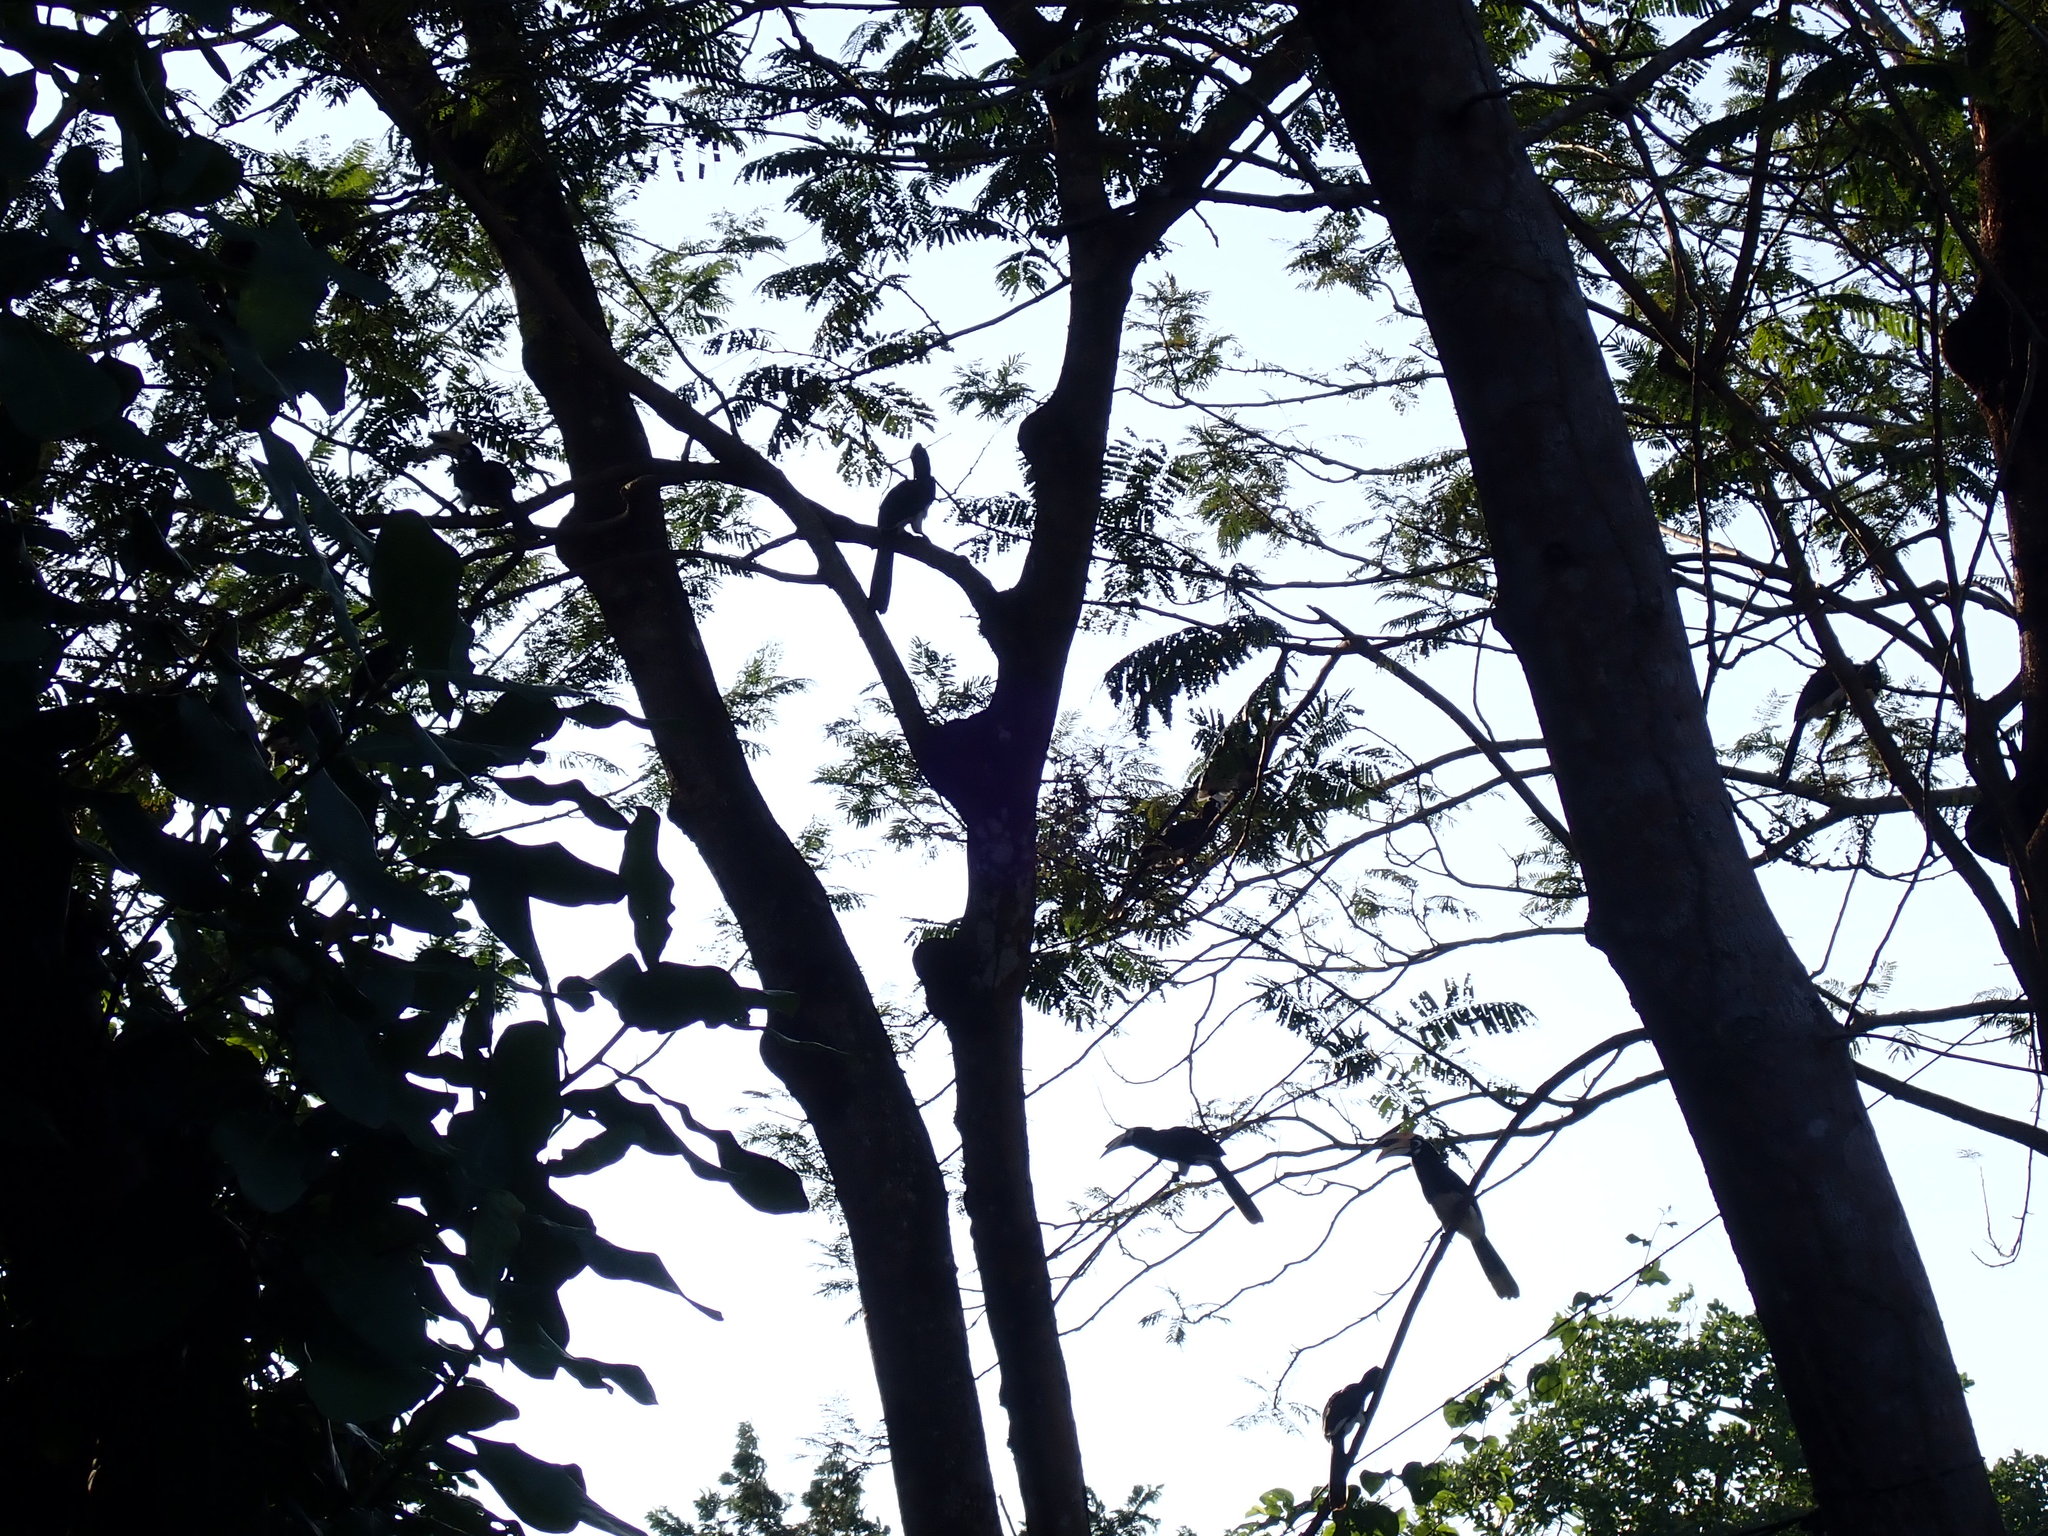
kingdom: Animalia
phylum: Chordata
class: Aves
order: Bucerotiformes
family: Bucerotidae
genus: Anthracoceros
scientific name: Anthracoceros albirostris
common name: Oriental pied-hornbill
